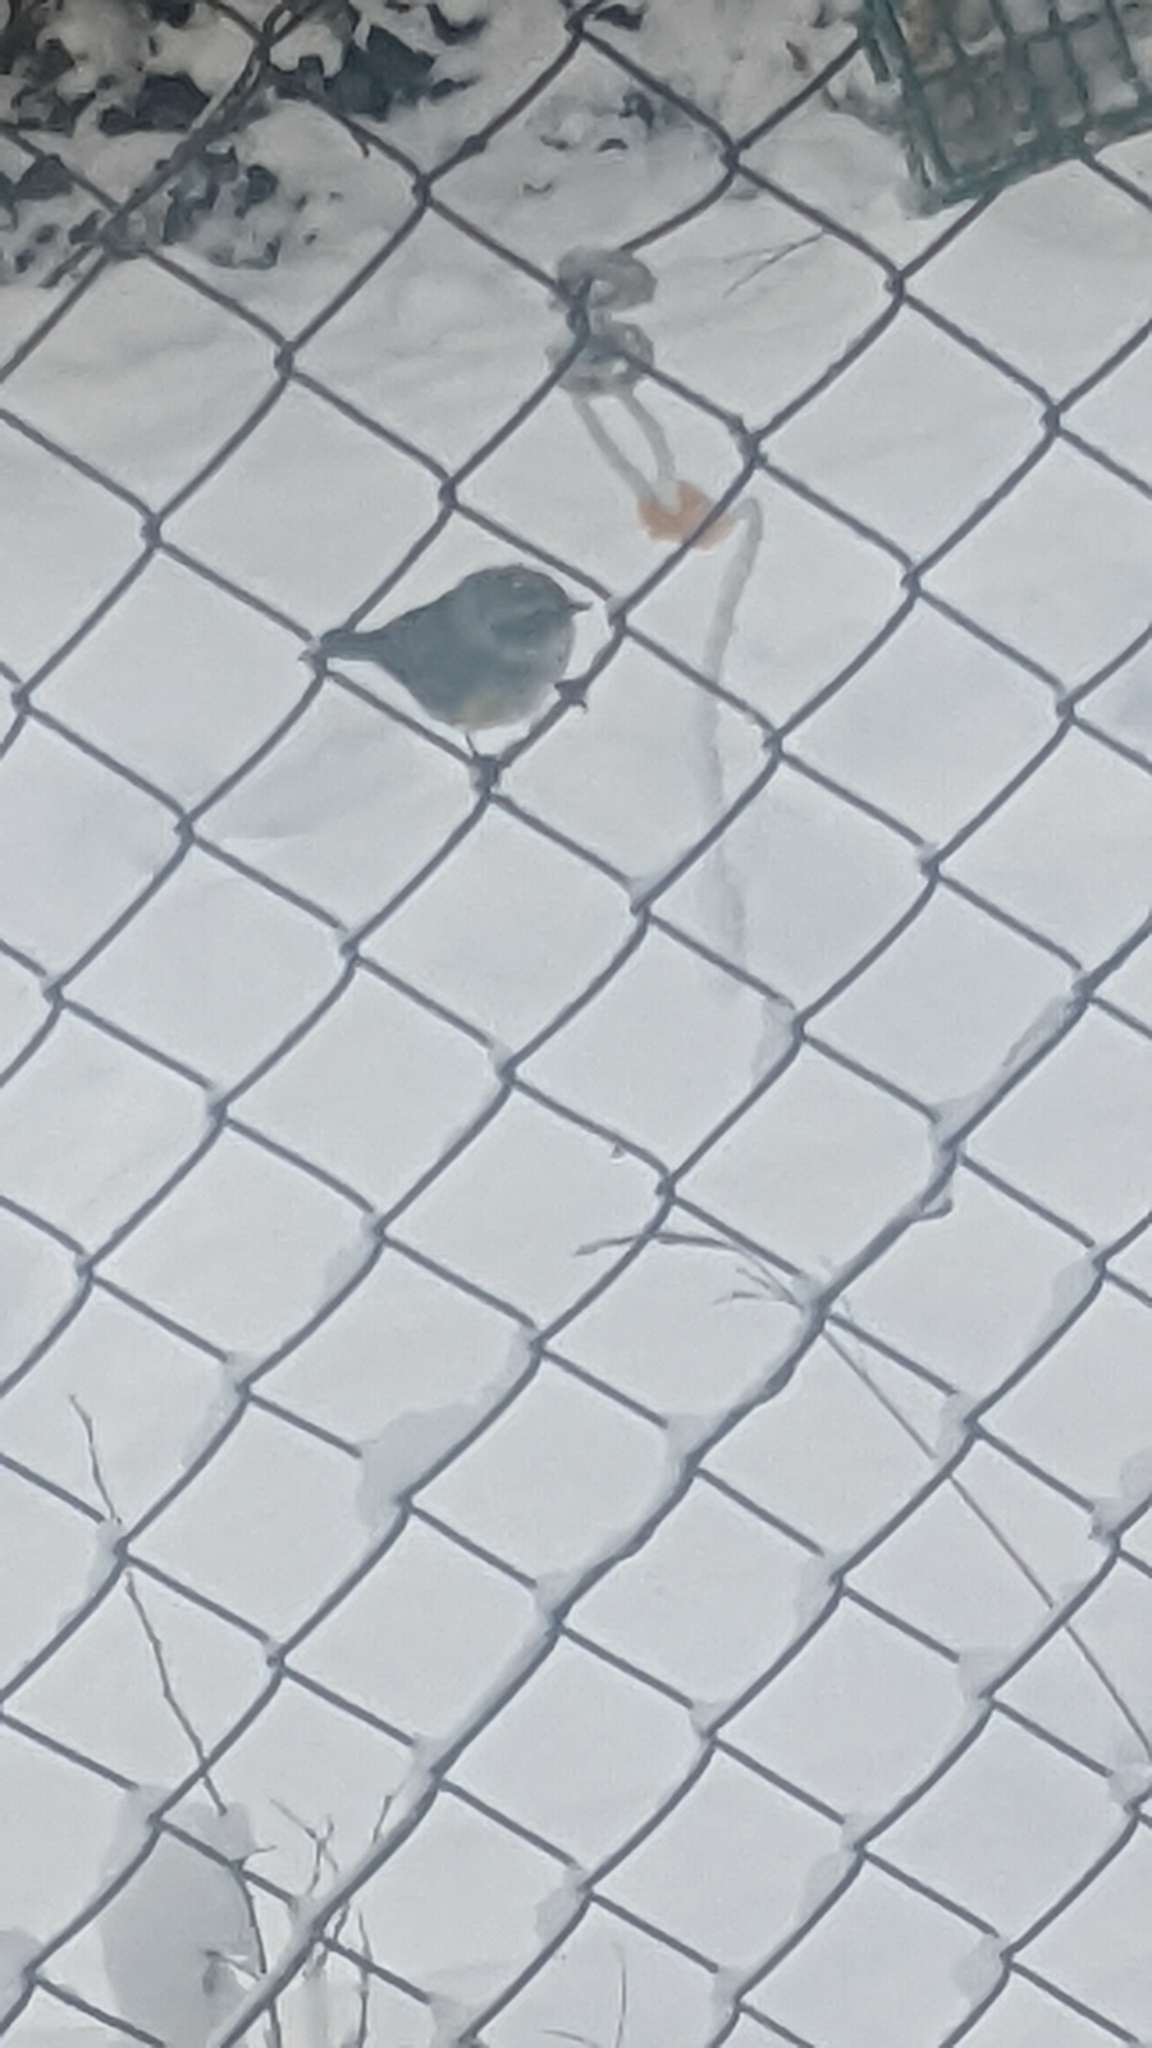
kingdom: Animalia
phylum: Chordata
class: Aves
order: Passeriformes
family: Parulidae
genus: Setophaga
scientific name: Setophaga coronata
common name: Myrtle warbler
